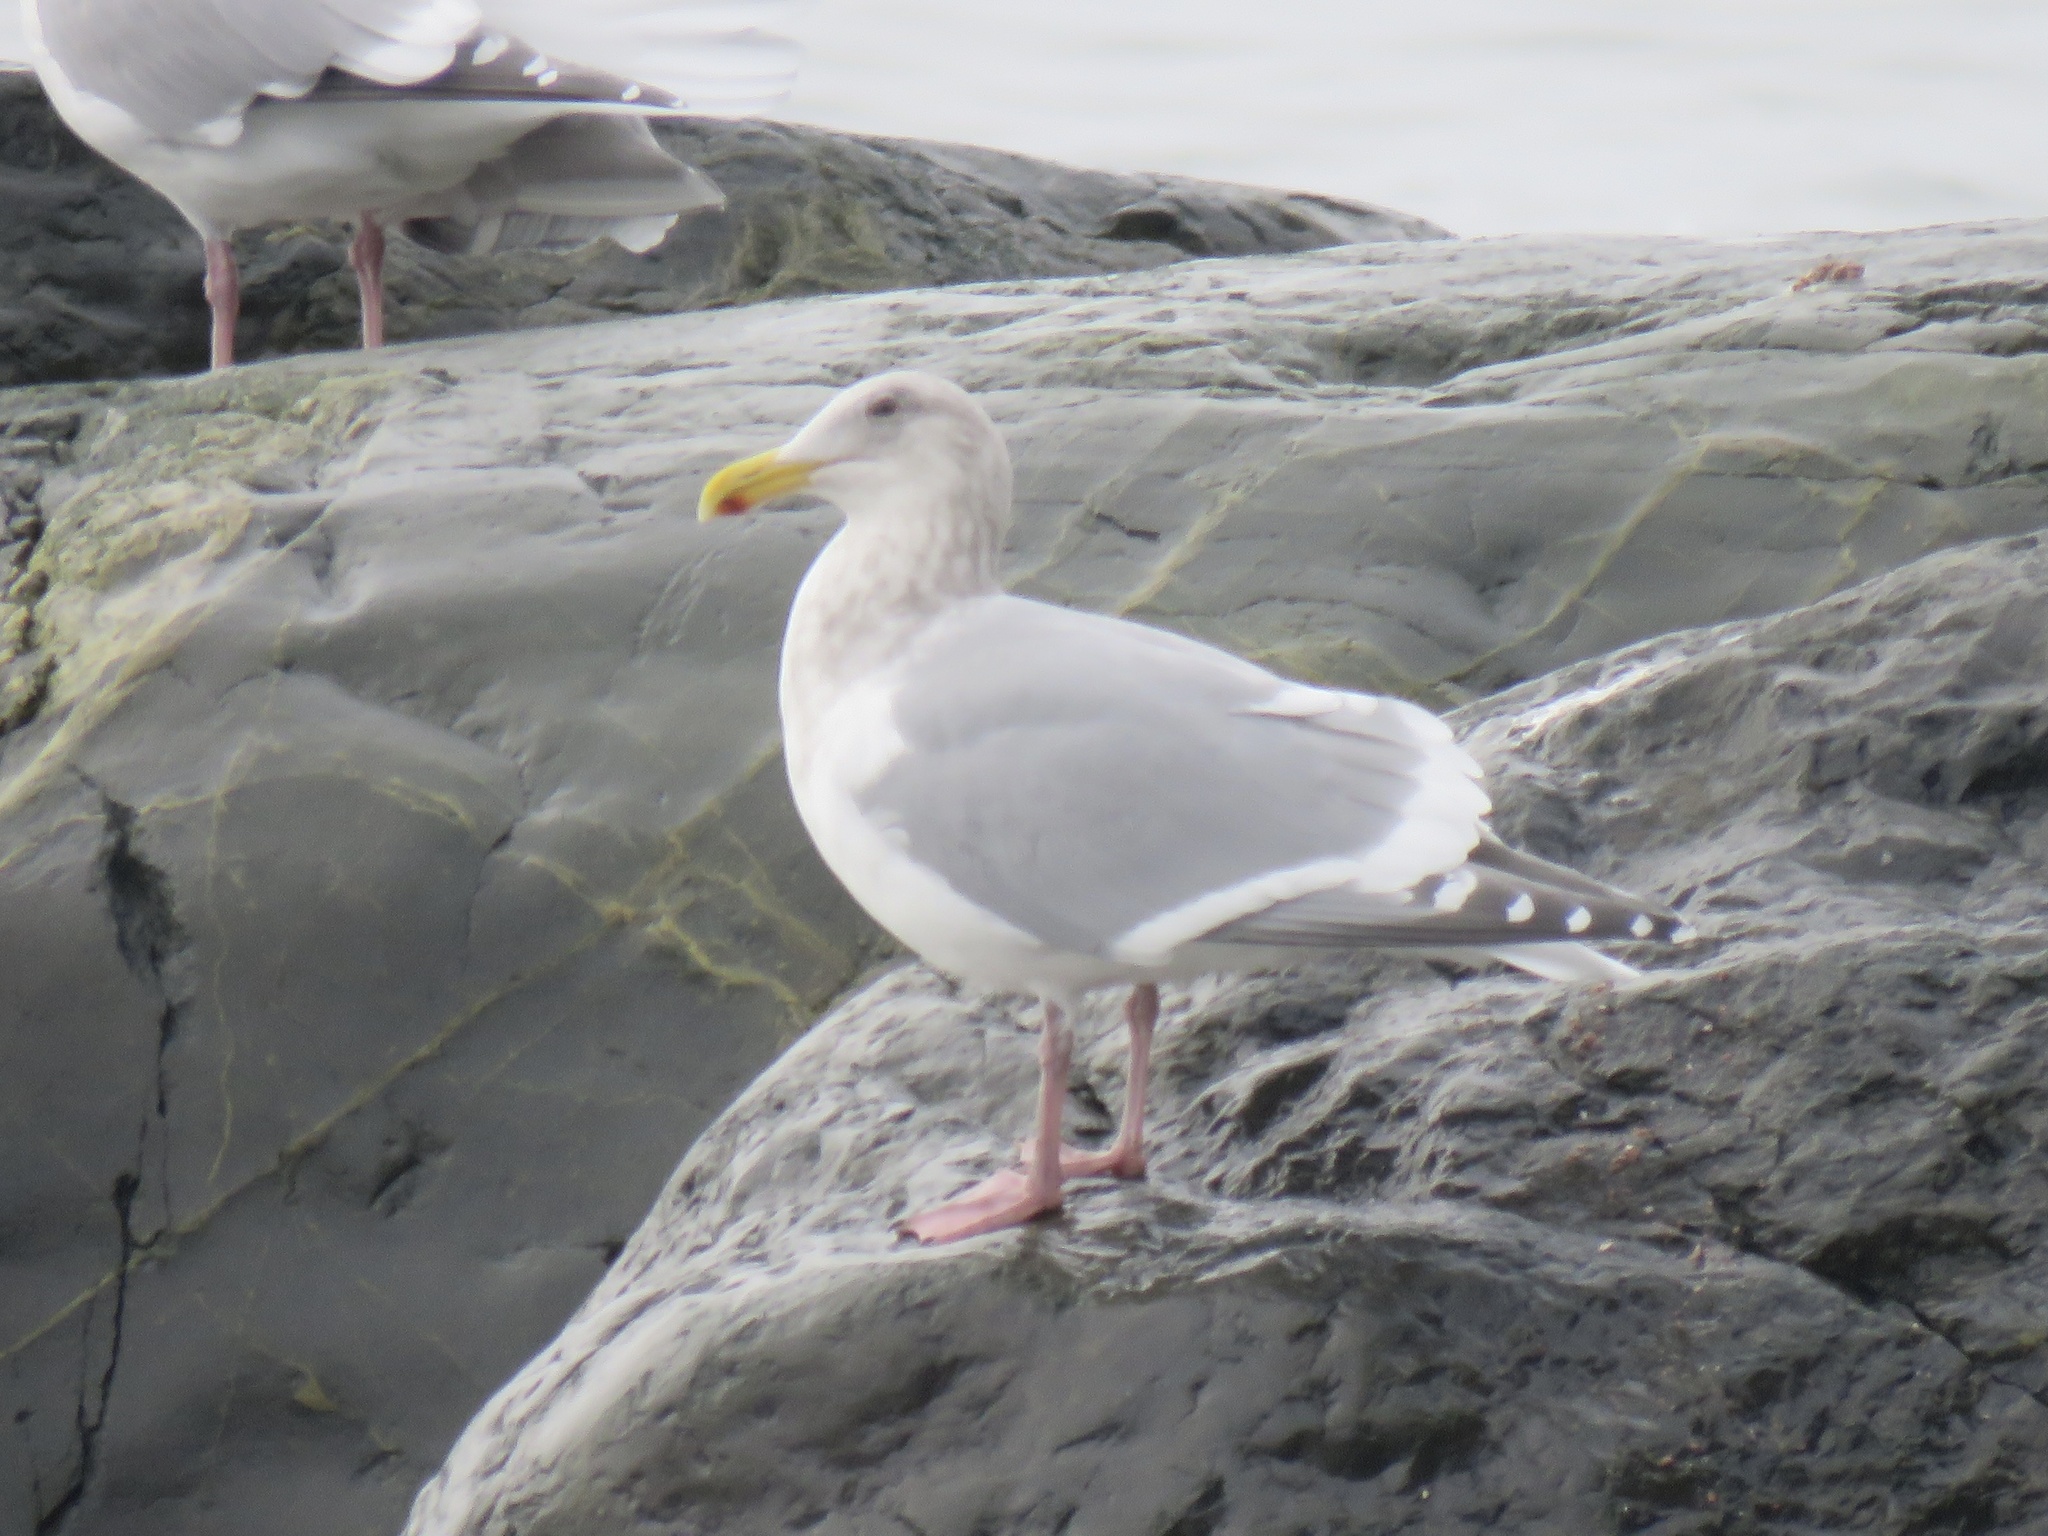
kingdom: Animalia
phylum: Chordata
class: Aves
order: Charadriiformes
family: Laridae
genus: Larus
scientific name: Larus
